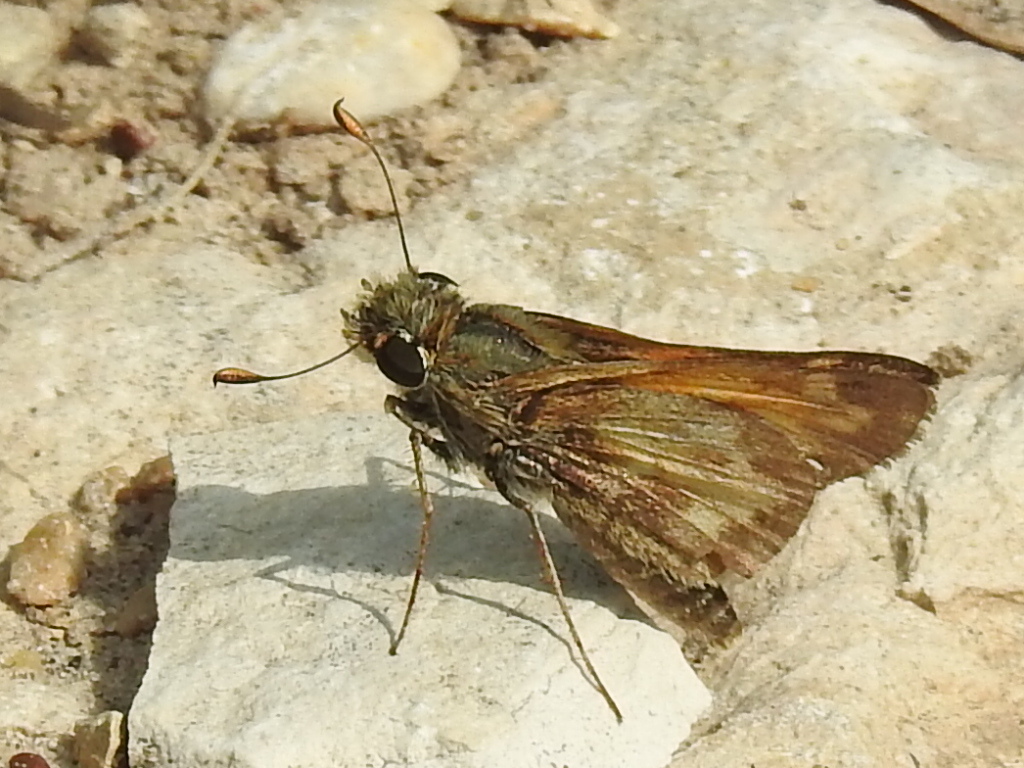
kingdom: Animalia
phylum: Arthropoda
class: Insecta
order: Lepidoptera
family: Hesperiidae
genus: Lerema
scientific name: Lerema accius
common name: Clouded skipper
